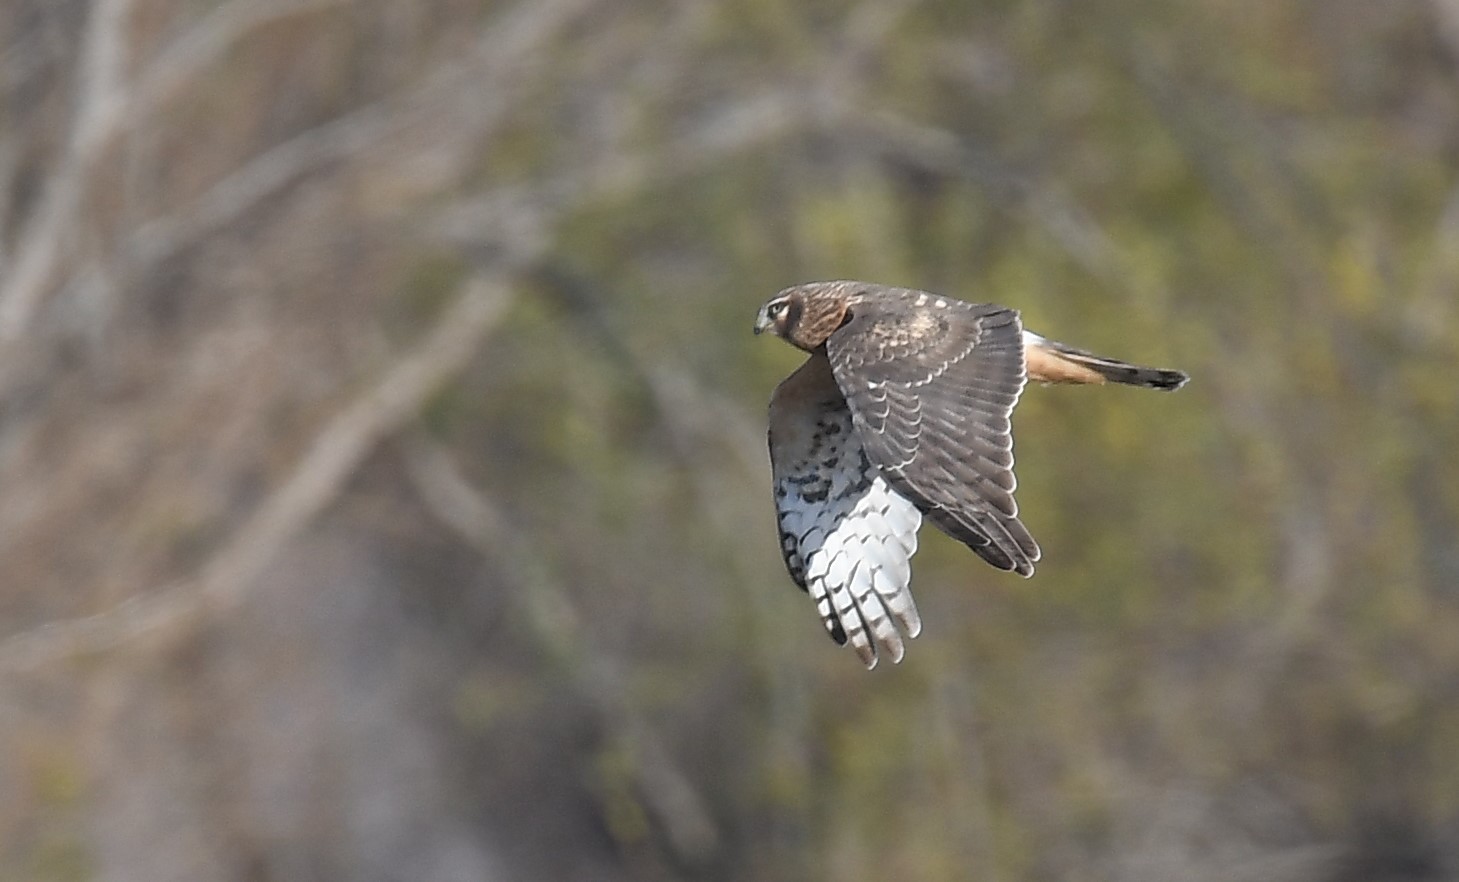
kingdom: Animalia
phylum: Chordata
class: Aves
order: Accipitriformes
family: Accipitridae
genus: Circus
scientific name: Circus cyaneus
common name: Hen harrier
